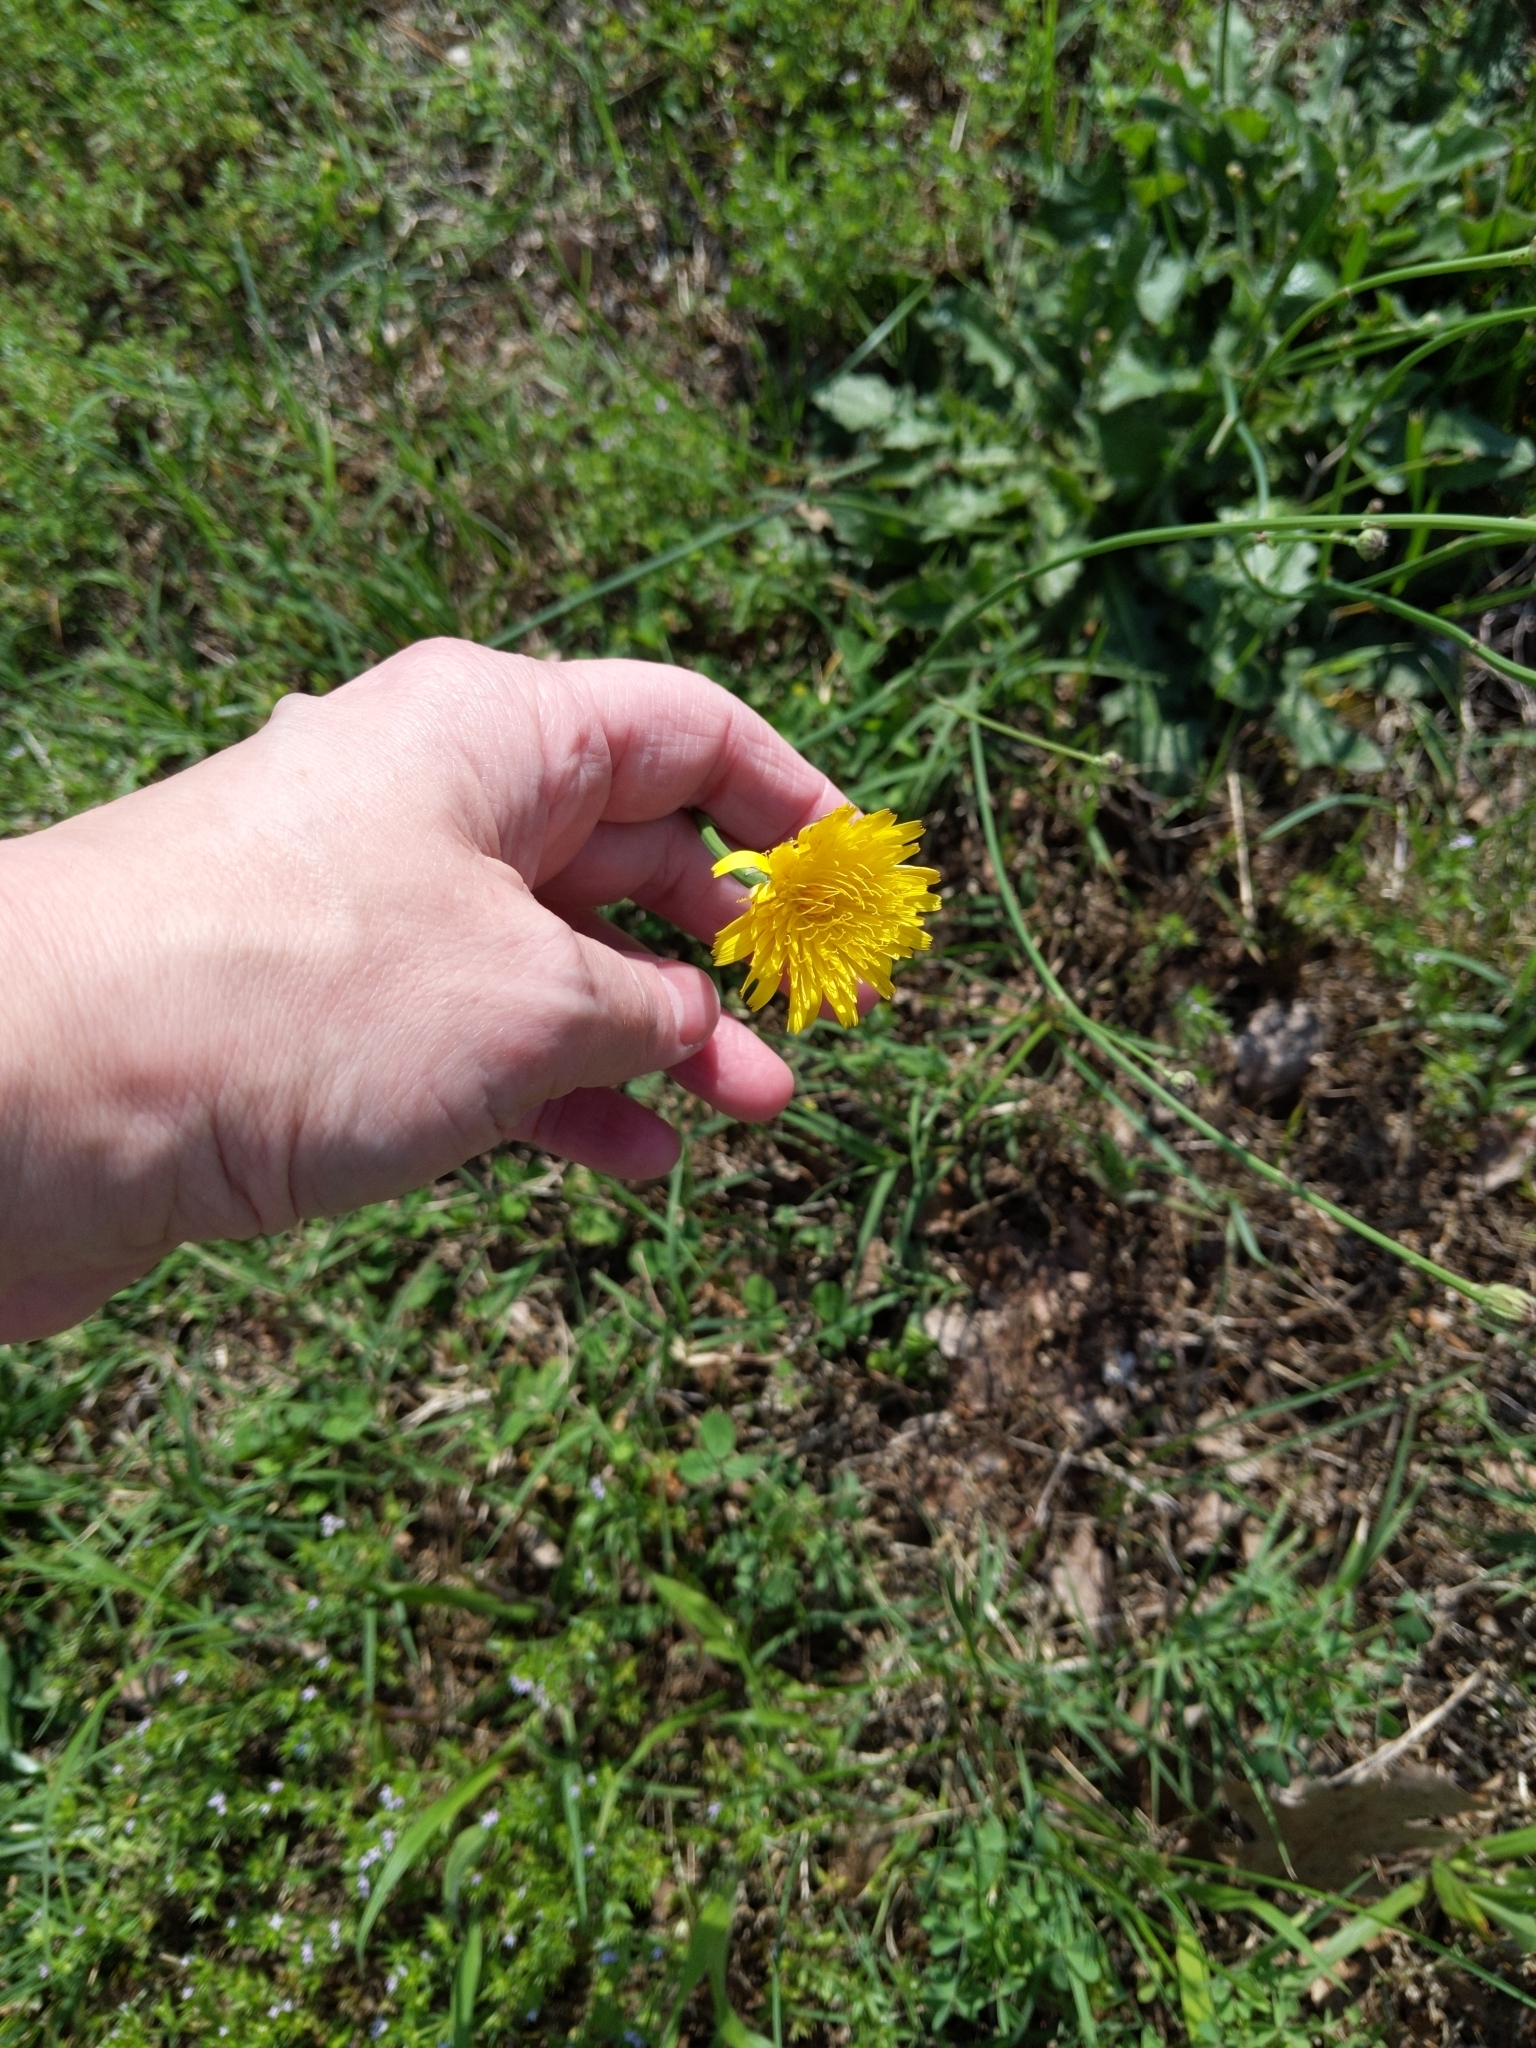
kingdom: Plantae
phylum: Tracheophyta
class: Magnoliopsida
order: Asterales
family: Asteraceae
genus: Hypochaeris
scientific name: Hypochaeris radicata
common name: Flatweed
